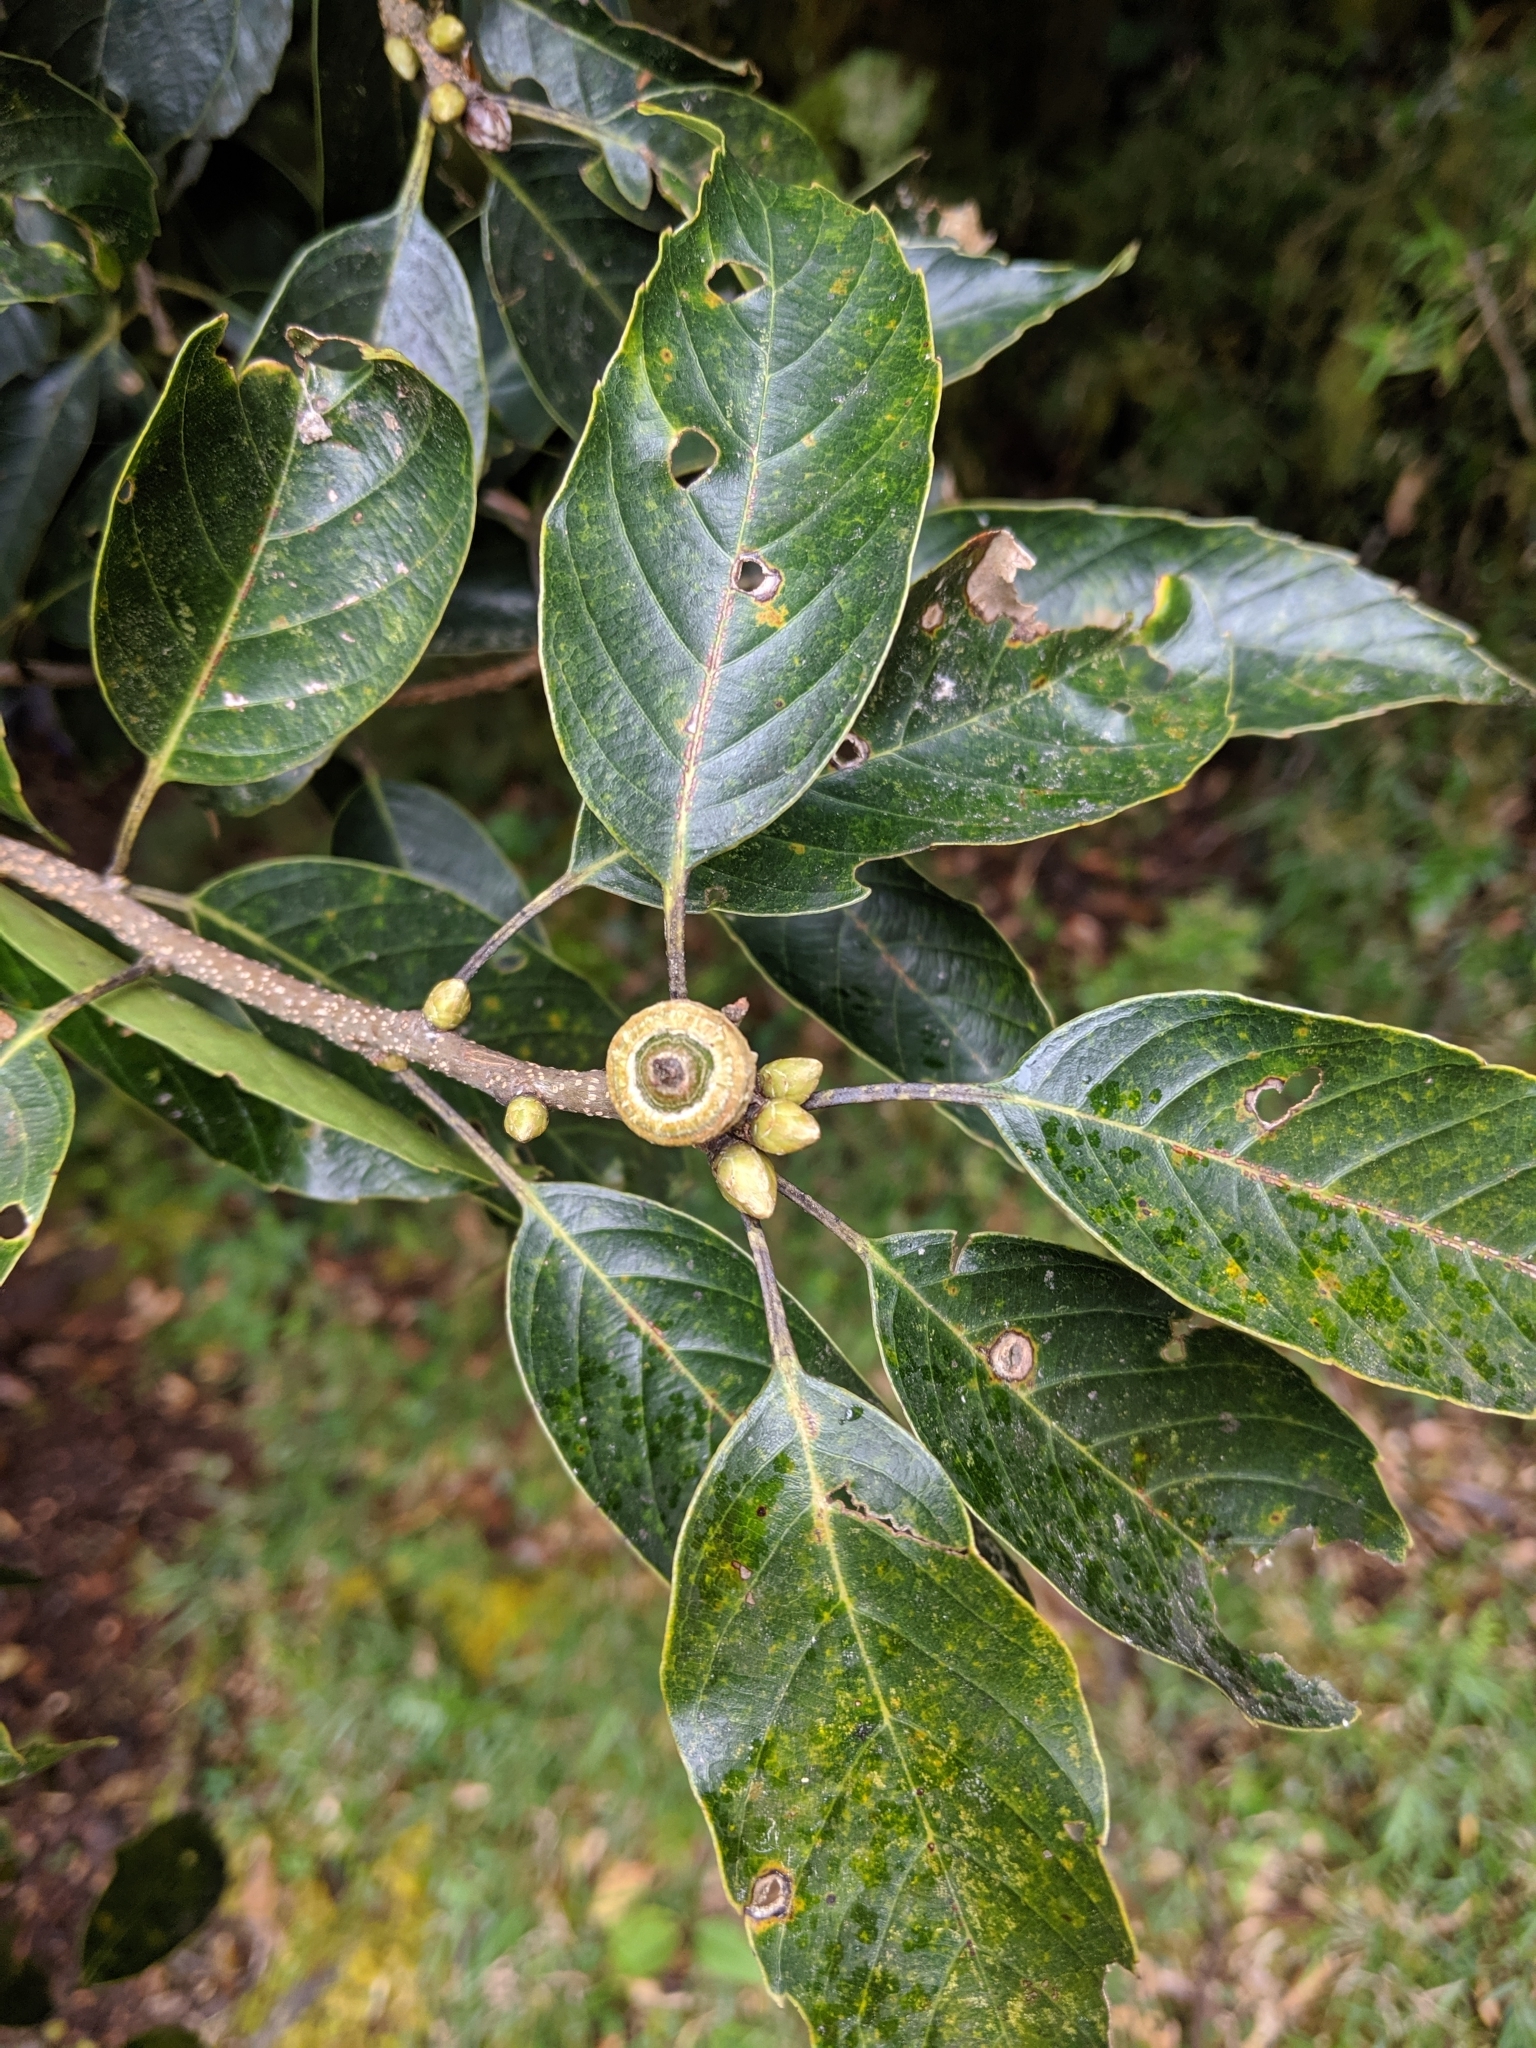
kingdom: Plantae
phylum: Tracheophyta
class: Magnoliopsida
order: Fagales
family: Fagaceae
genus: Quercus
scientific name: Quercus morii
